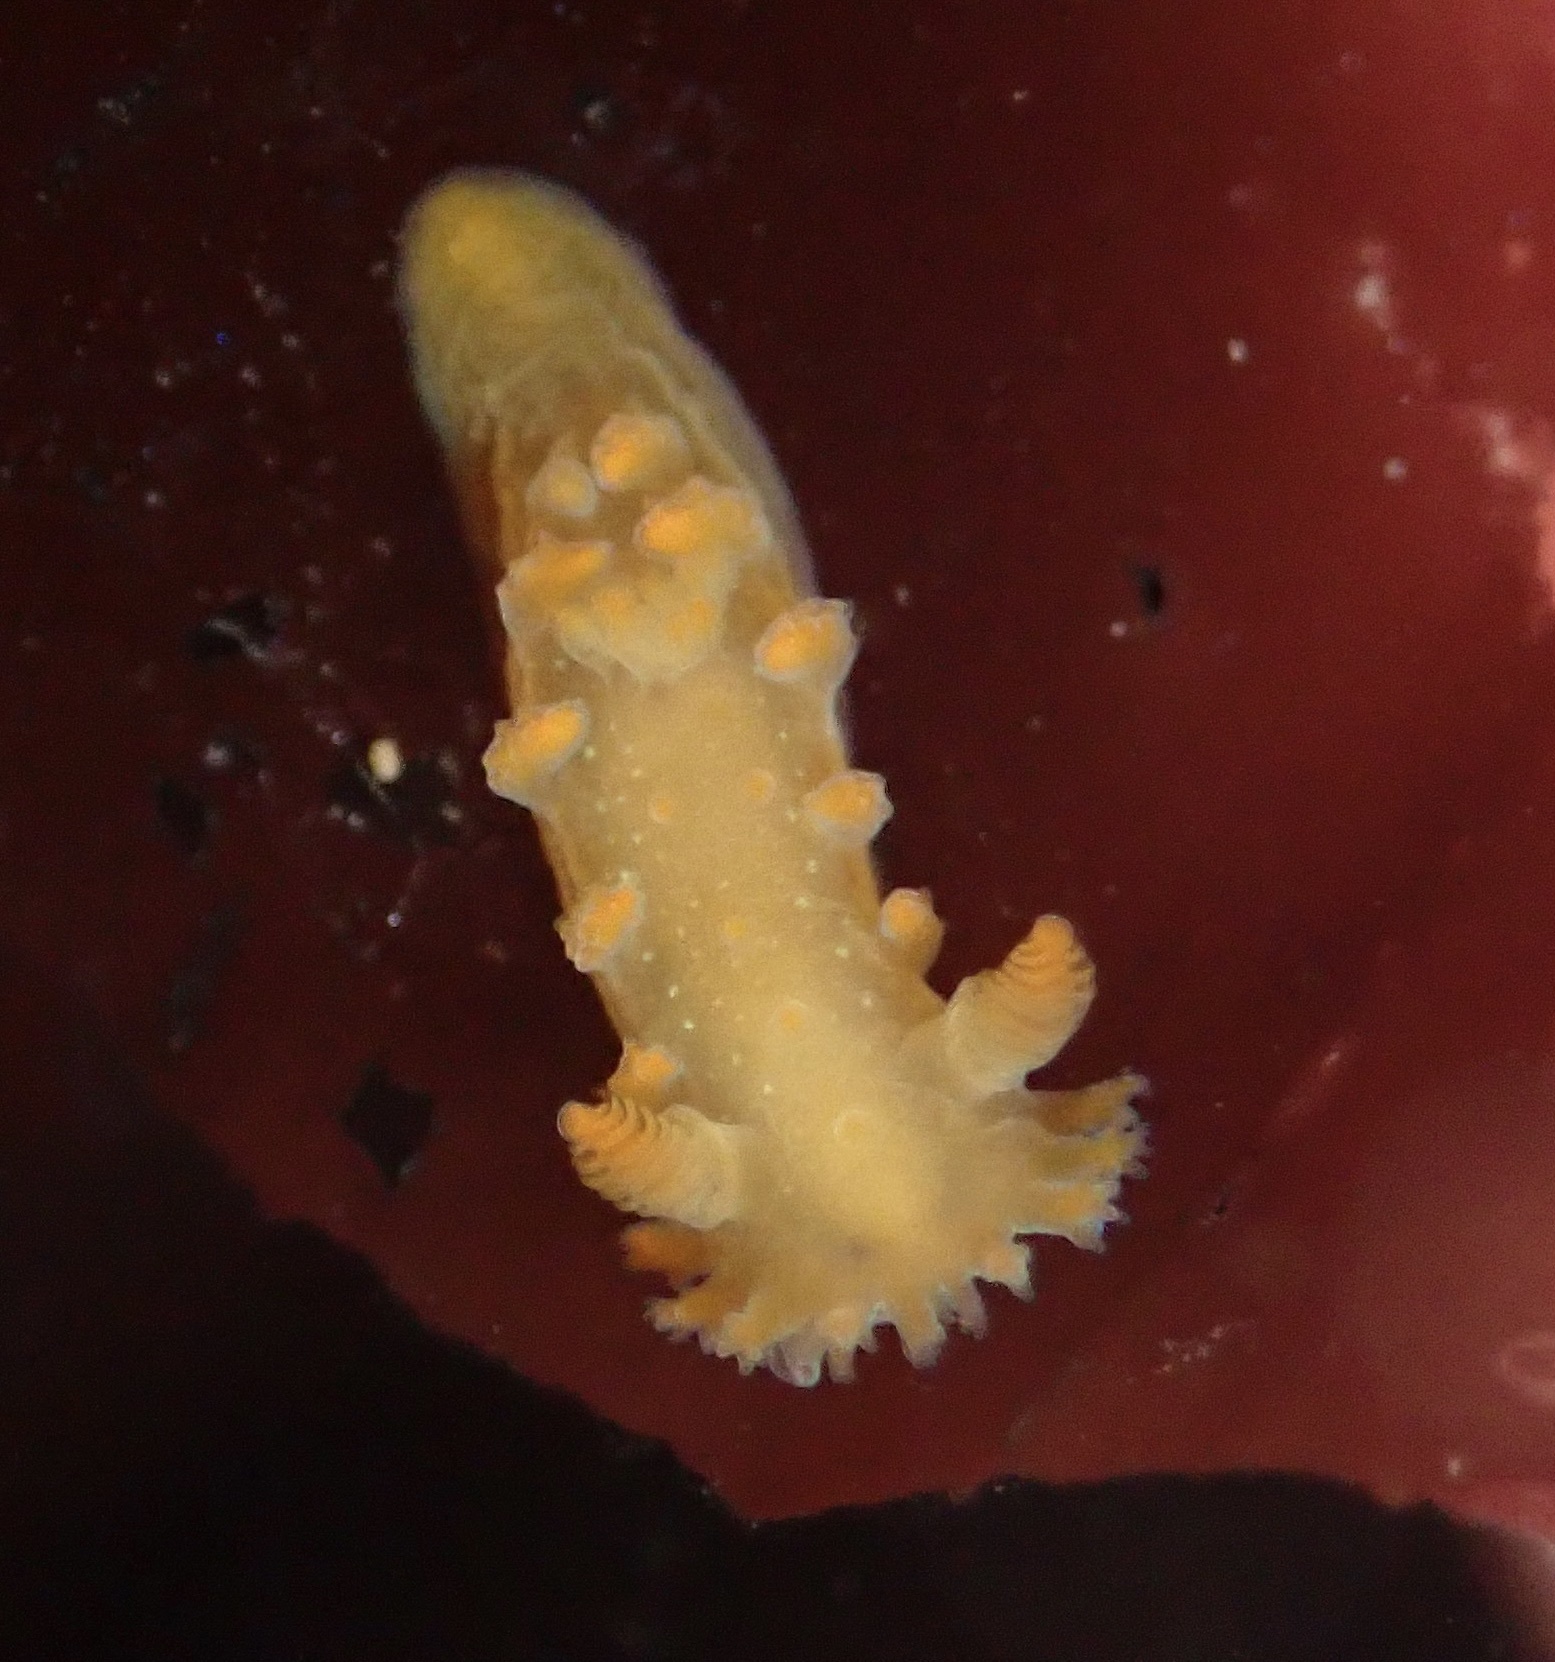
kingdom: Animalia
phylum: Mollusca
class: Gastropoda
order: Nudibranchia
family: Polyceridae
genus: Triopha
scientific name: Triopha maculata
